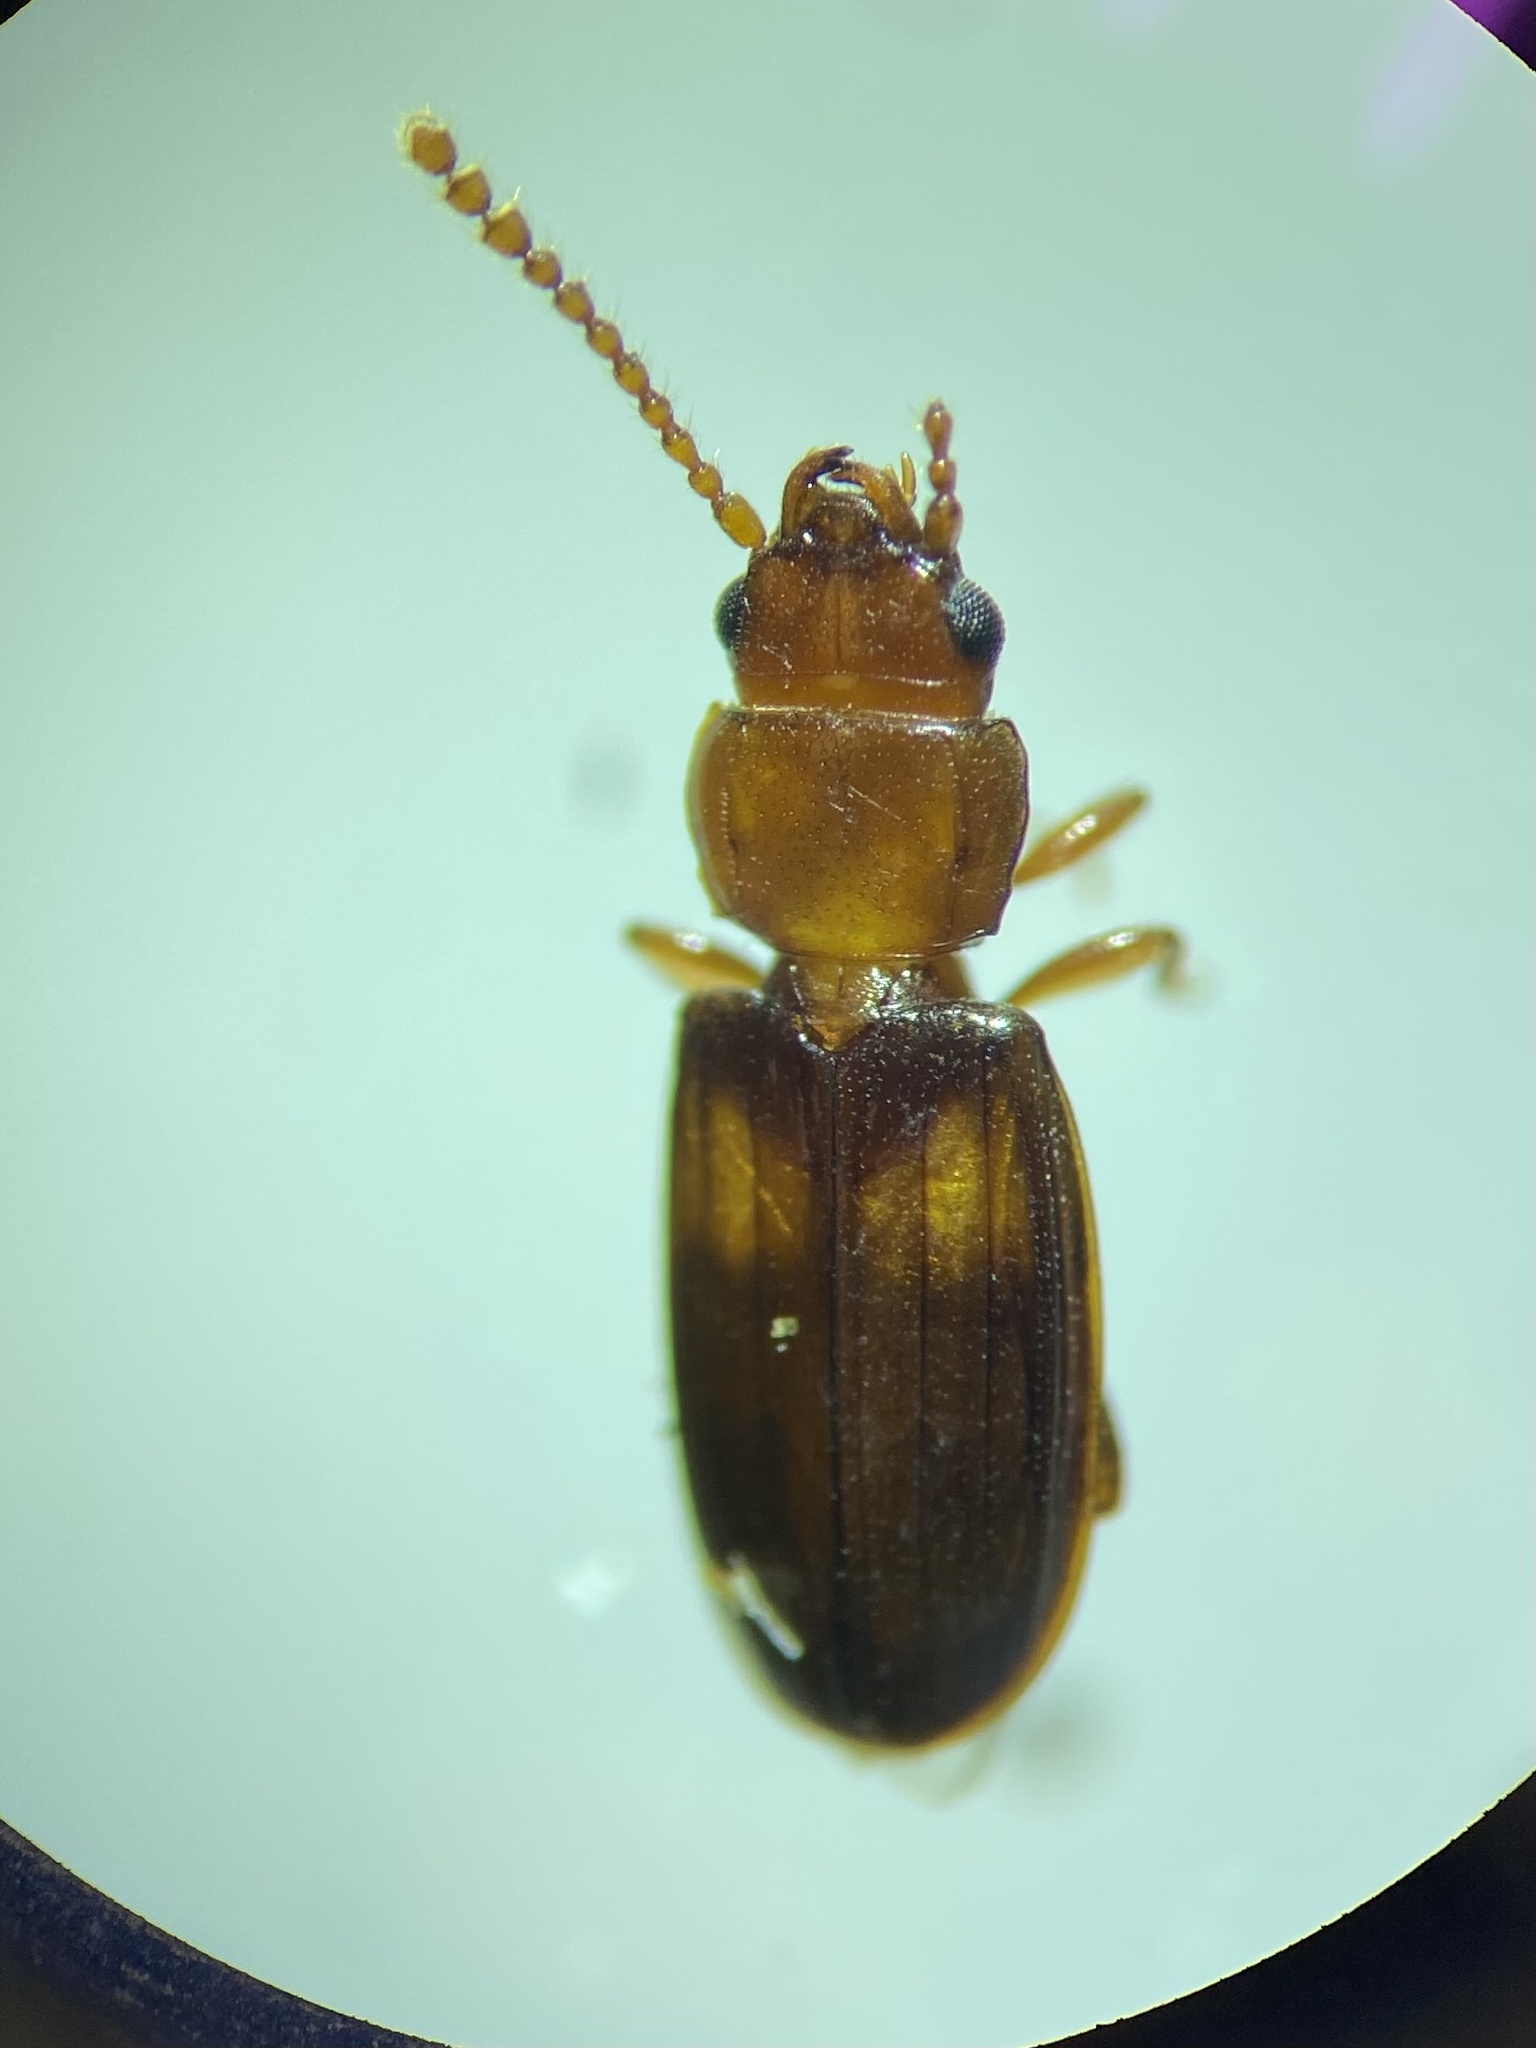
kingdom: Animalia
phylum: Arthropoda
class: Insecta
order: Coleoptera
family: Laemophloeidae
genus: Laemophloeus
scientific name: Laemophloeus fasciatus
